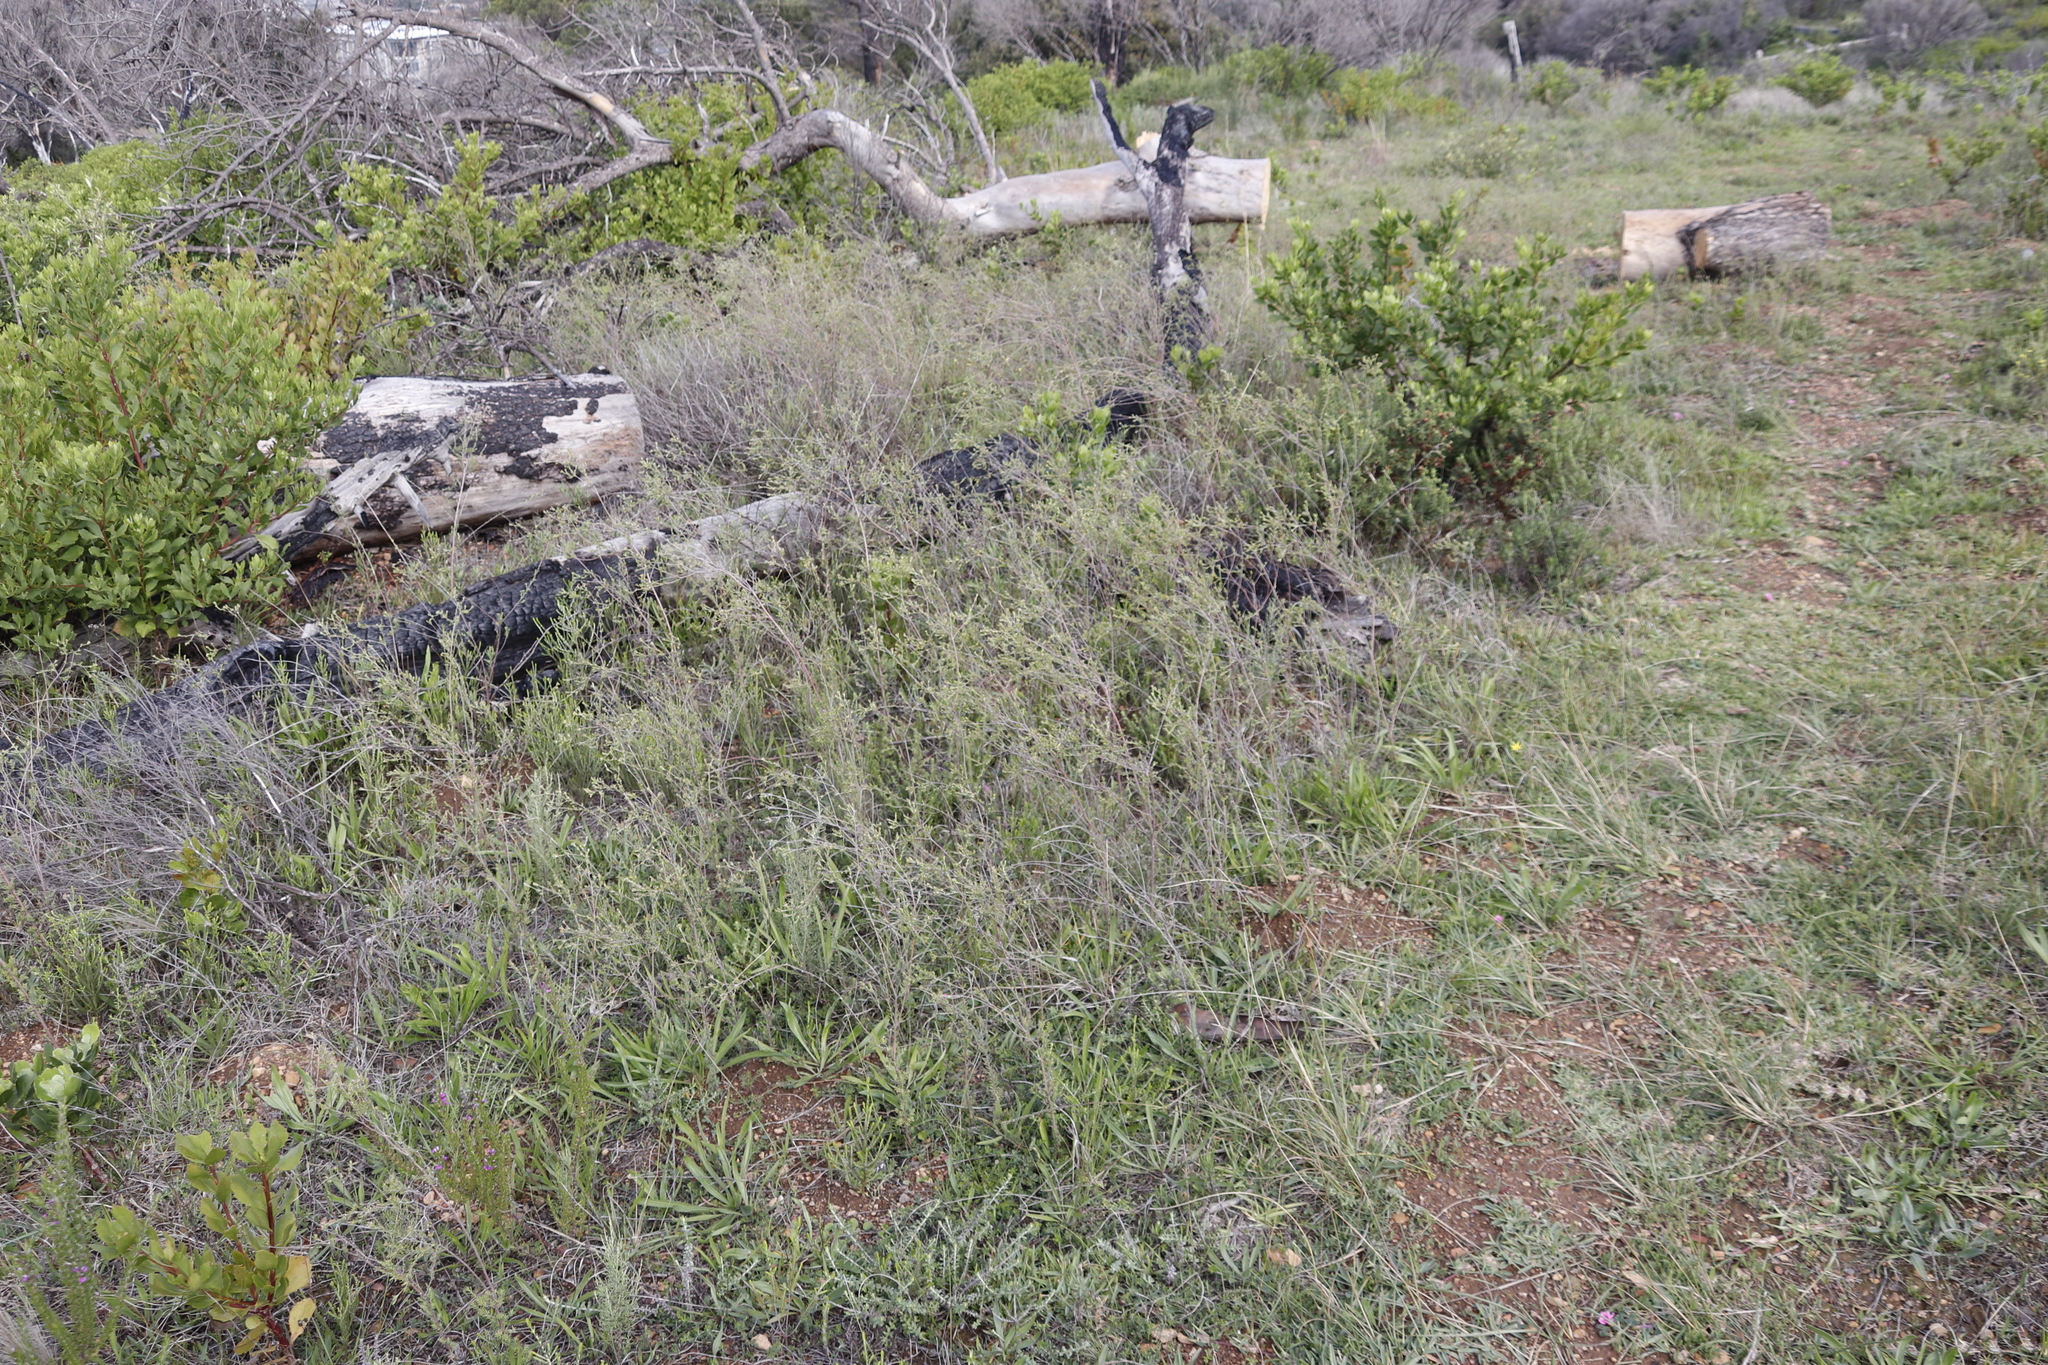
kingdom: Plantae
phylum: Tracheophyta
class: Magnoliopsida
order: Malvales
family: Thymelaeaceae
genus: Gnidia
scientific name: Gnidia laxa
